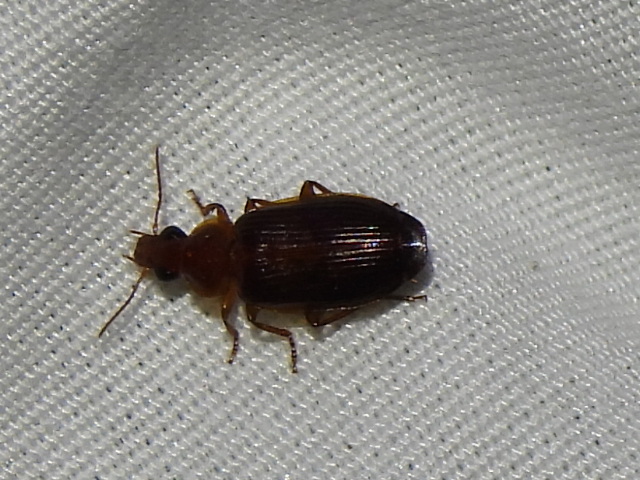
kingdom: Animalia
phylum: Arthropoda
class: Insecta
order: Coleoptera
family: Carabidae
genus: Plochionus
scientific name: Plochionus timidus
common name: Timid harp ground beetle
